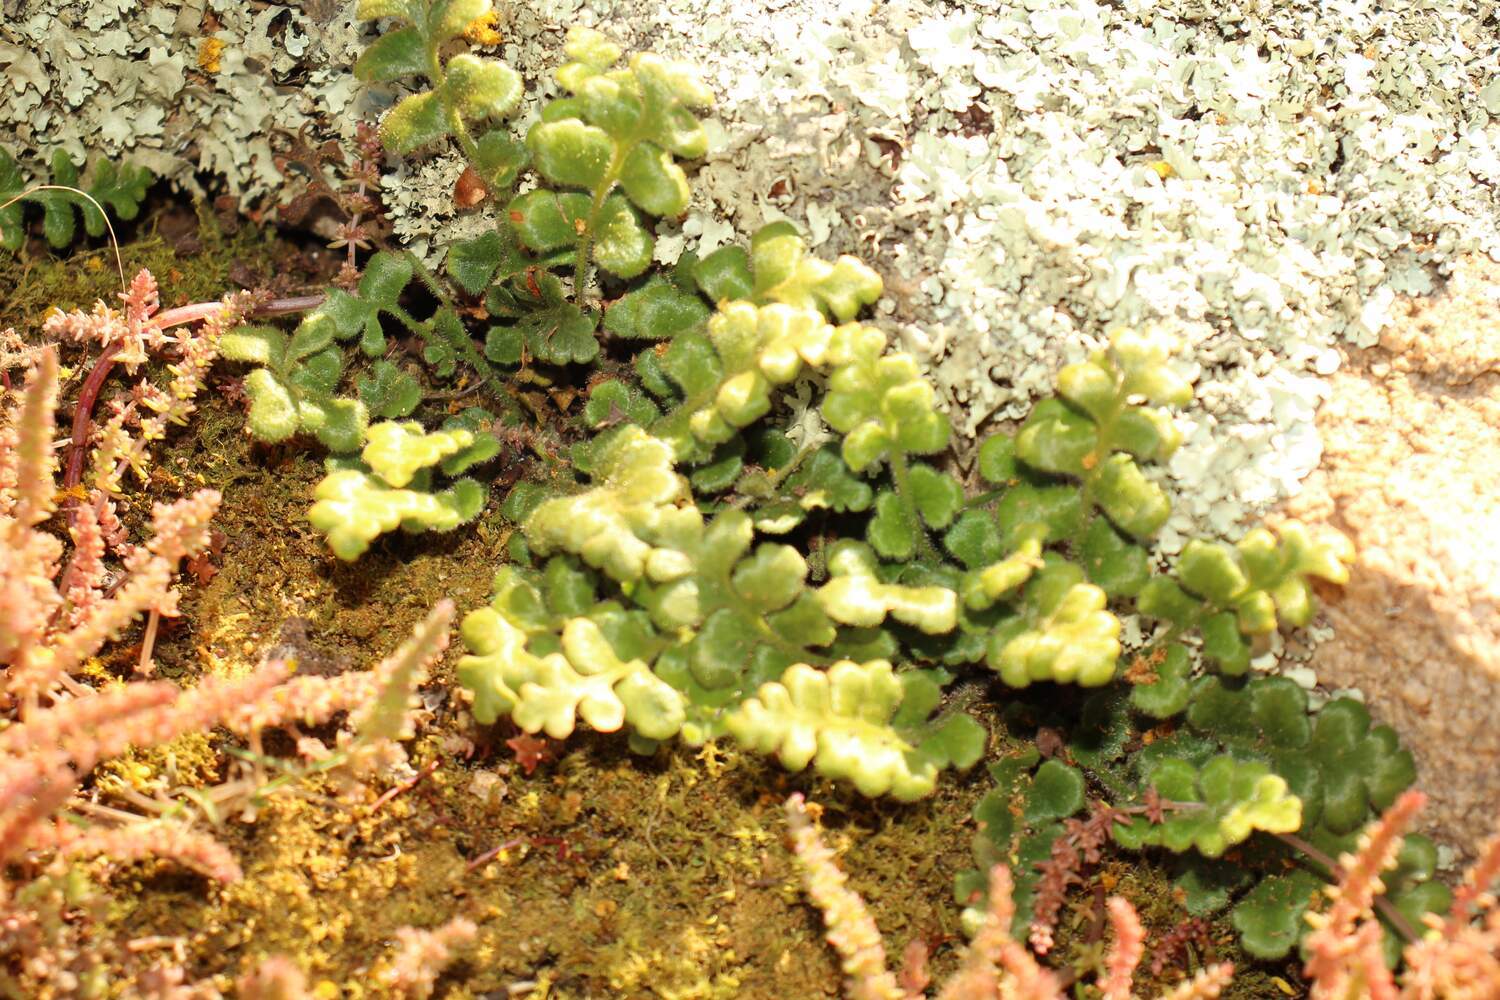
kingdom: Plantae
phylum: Tracheophyta
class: Polypodiopsida
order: Polypodiales
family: Aspleniaceae
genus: Asplenium
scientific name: Asplenium subglandulosum
